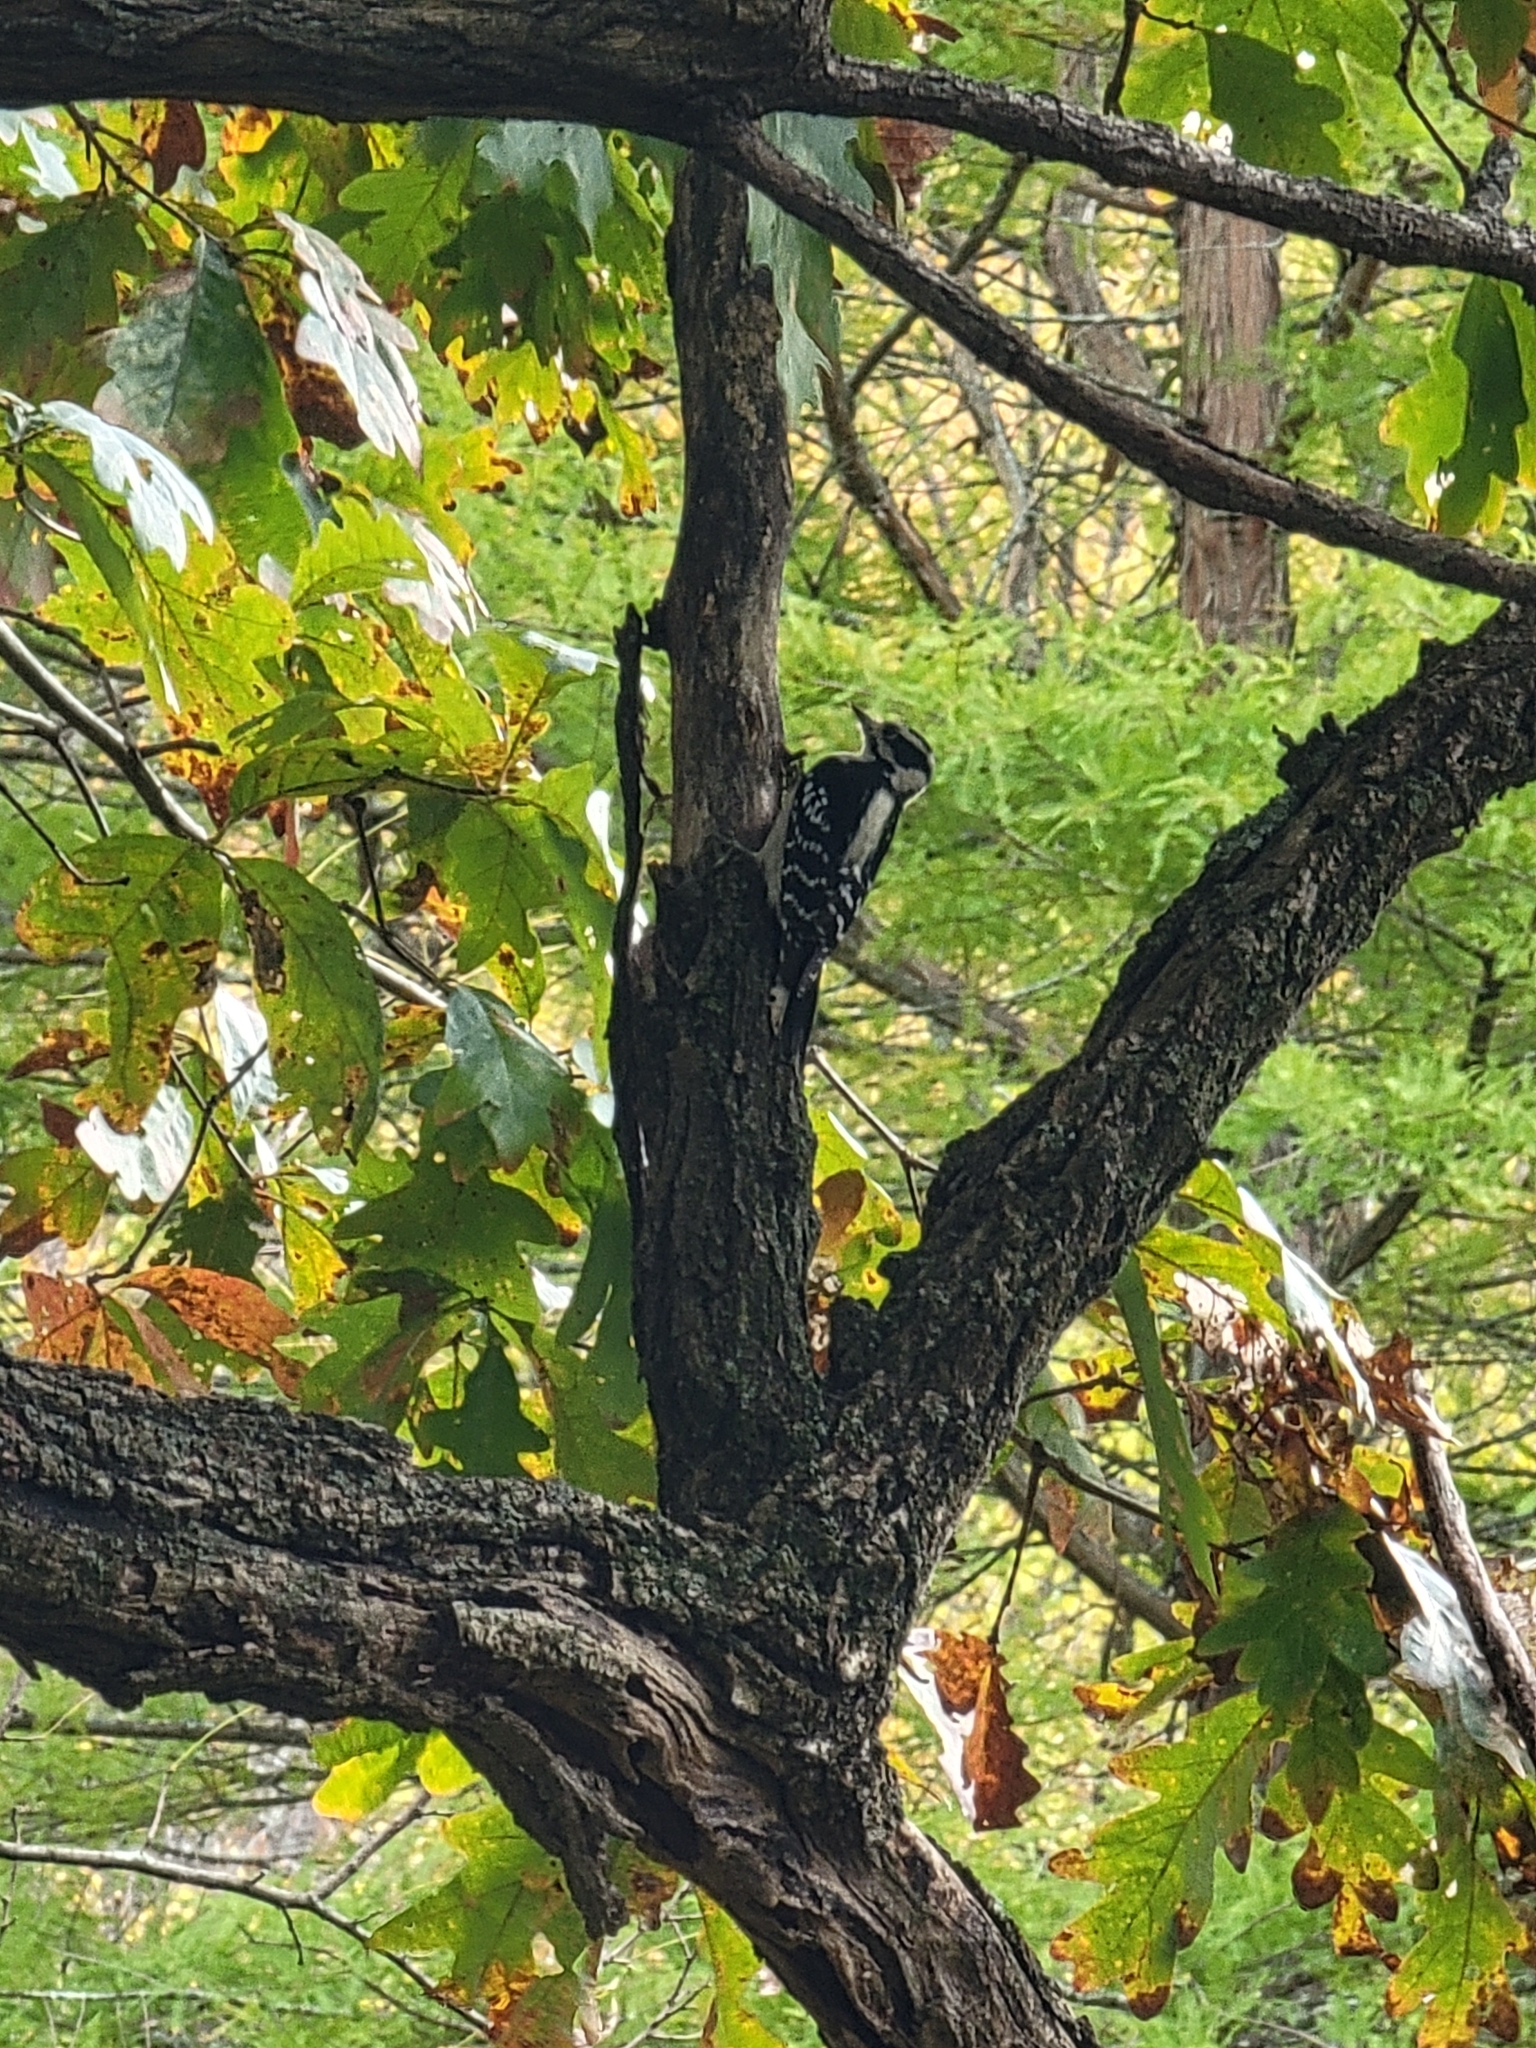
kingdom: Animalia
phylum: Chordata
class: Aves
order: Piciformes
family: Picidae
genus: Dryobates
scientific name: Dryobates pubescens
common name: Downy woodpecker
